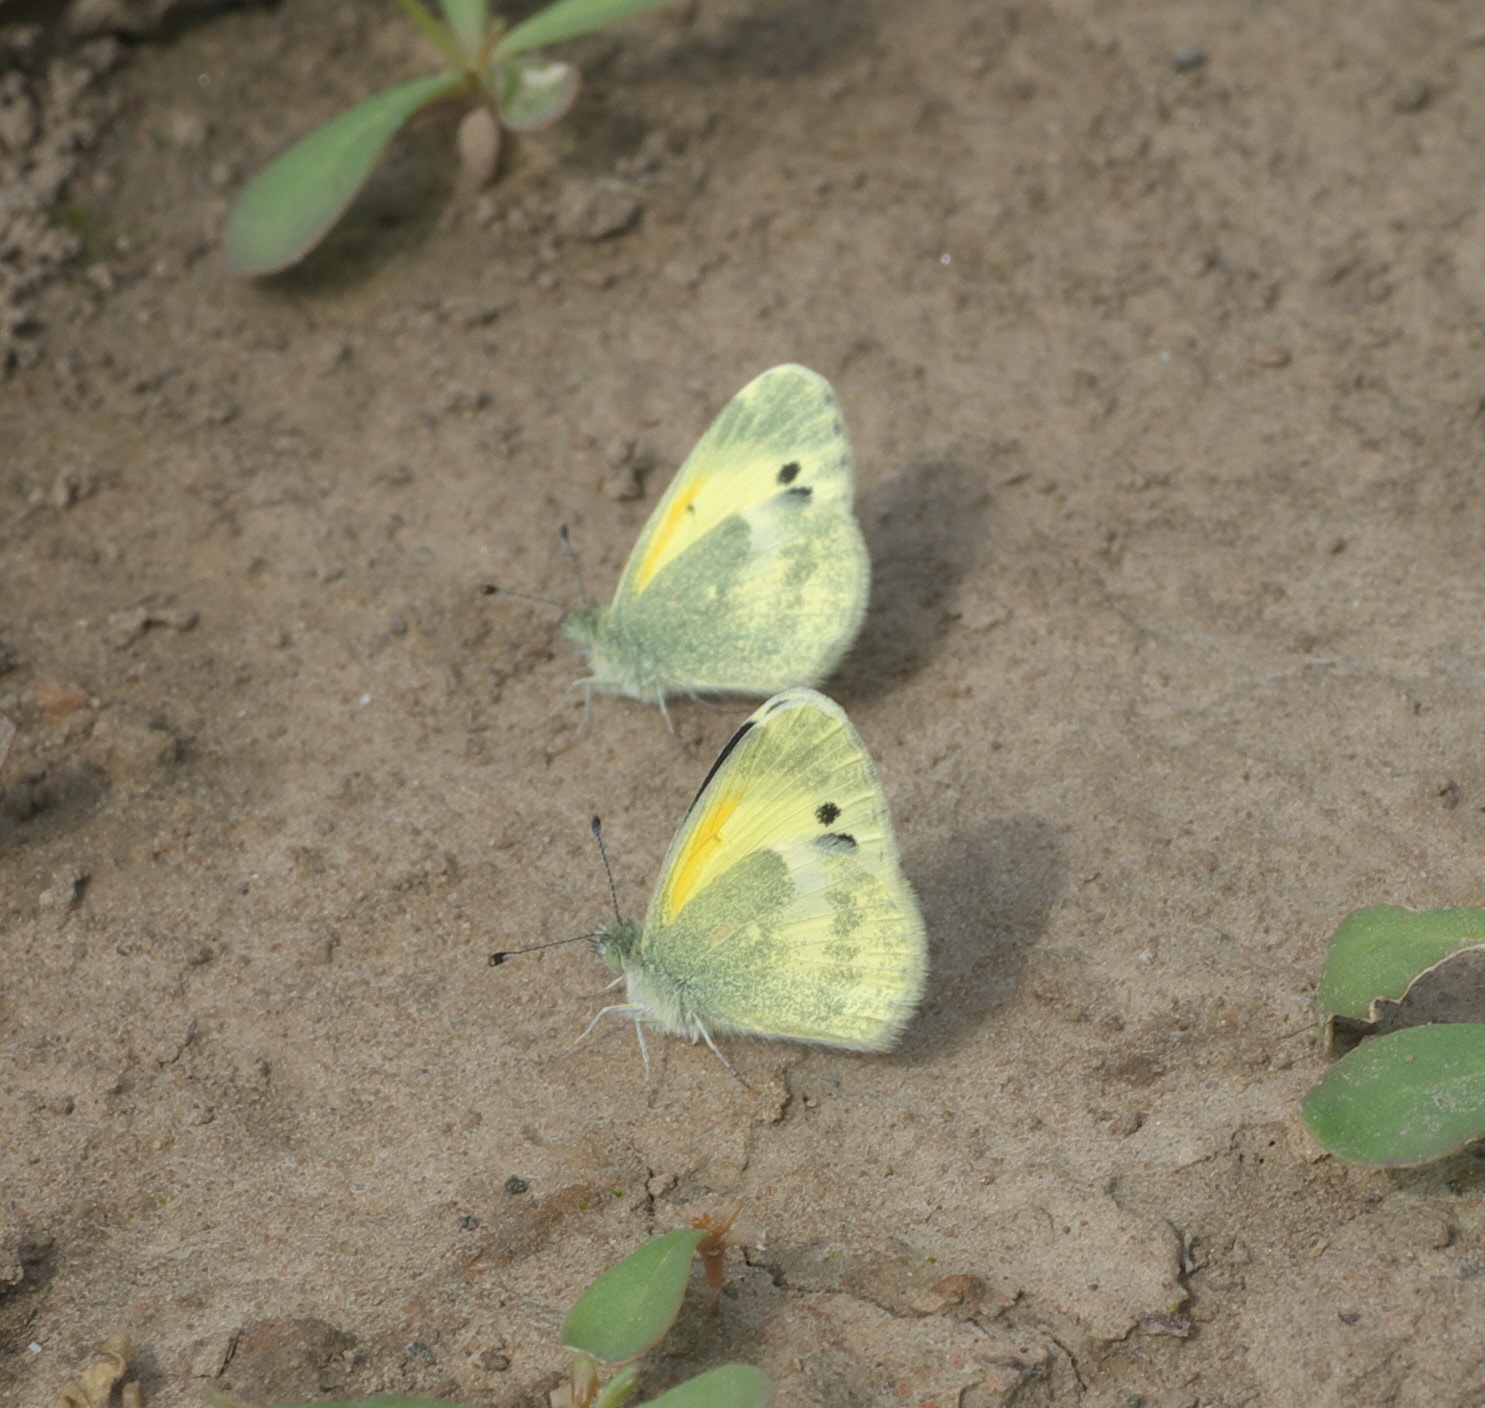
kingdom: Animalia
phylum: Arthropoda
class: Insecta
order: Lepidoptera
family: Pieridae
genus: Nathalis
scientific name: Nathalis iole
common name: Dainty sulphur
